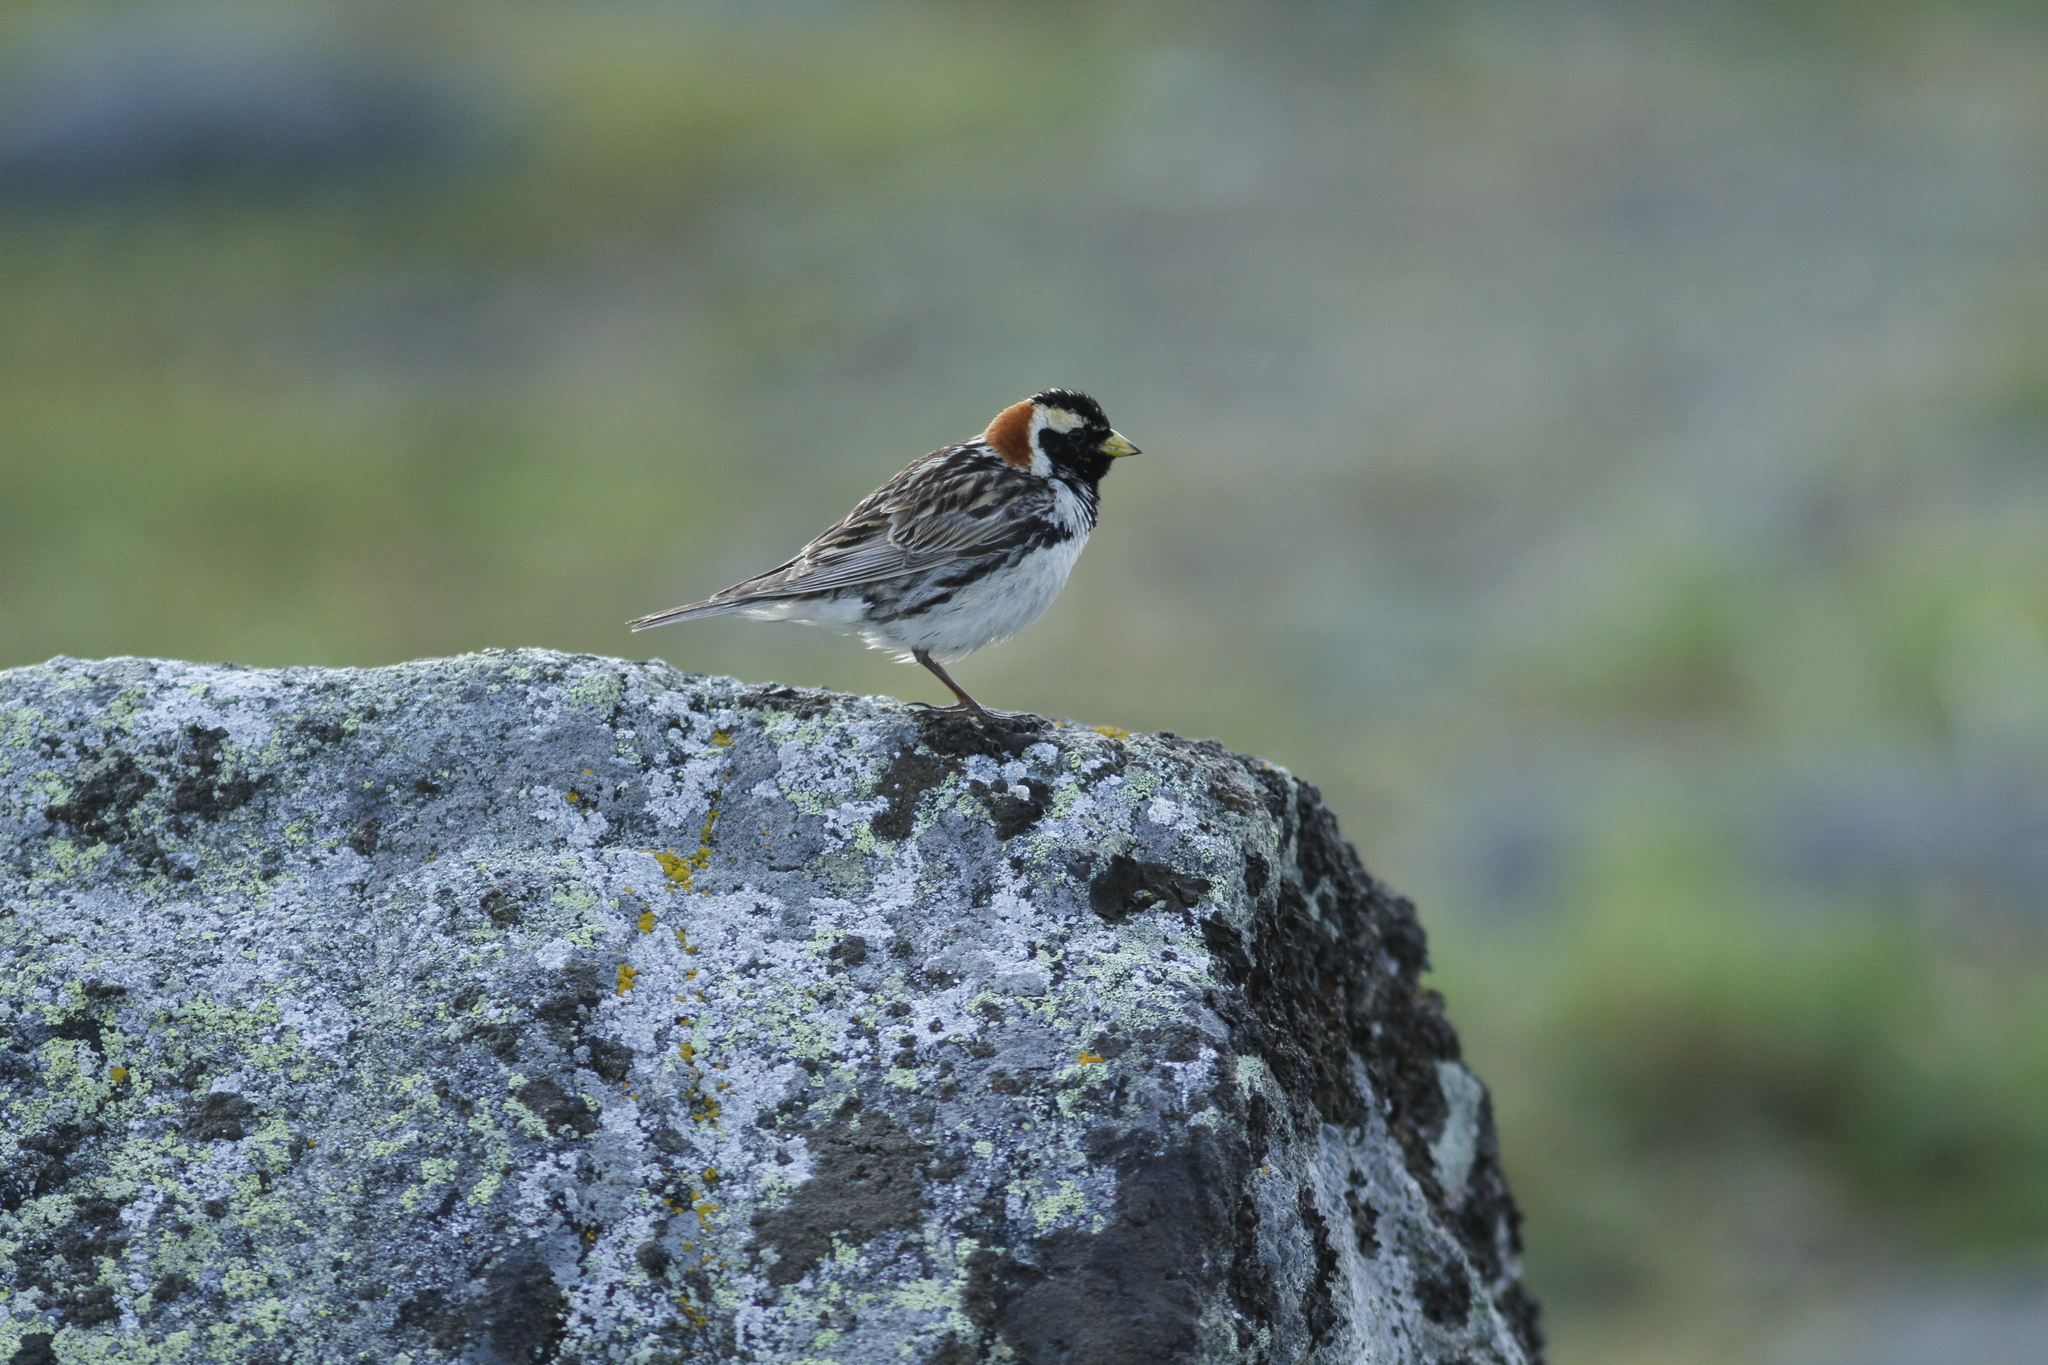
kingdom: Animalia
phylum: Chordata
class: Aves
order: Passeriformes
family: Calcariidae
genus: Calcarius
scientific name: Calcarius lapponicus
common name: Lapland longspur
